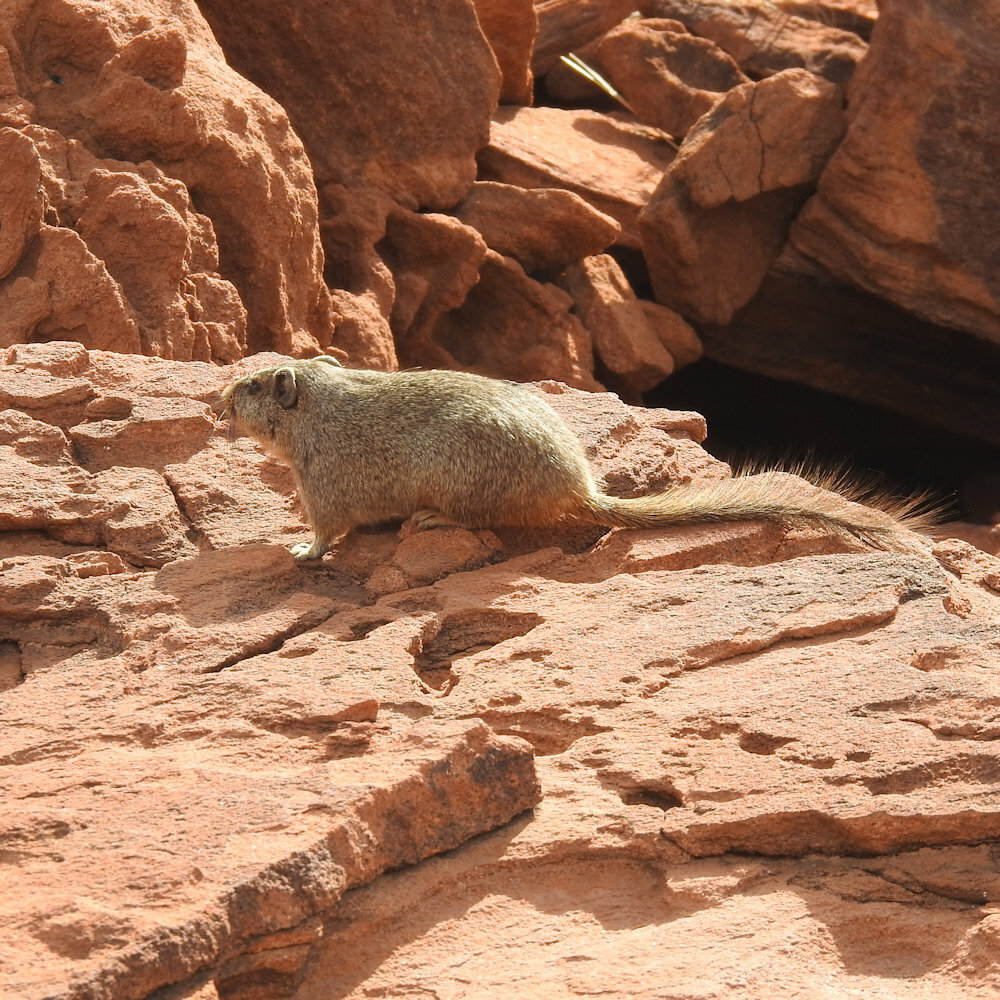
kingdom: Animalia
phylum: Chordata
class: Mammalia
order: Rodentia
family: Petromuridae
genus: Petromus
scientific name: Petromus typicus
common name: Dassie rat
